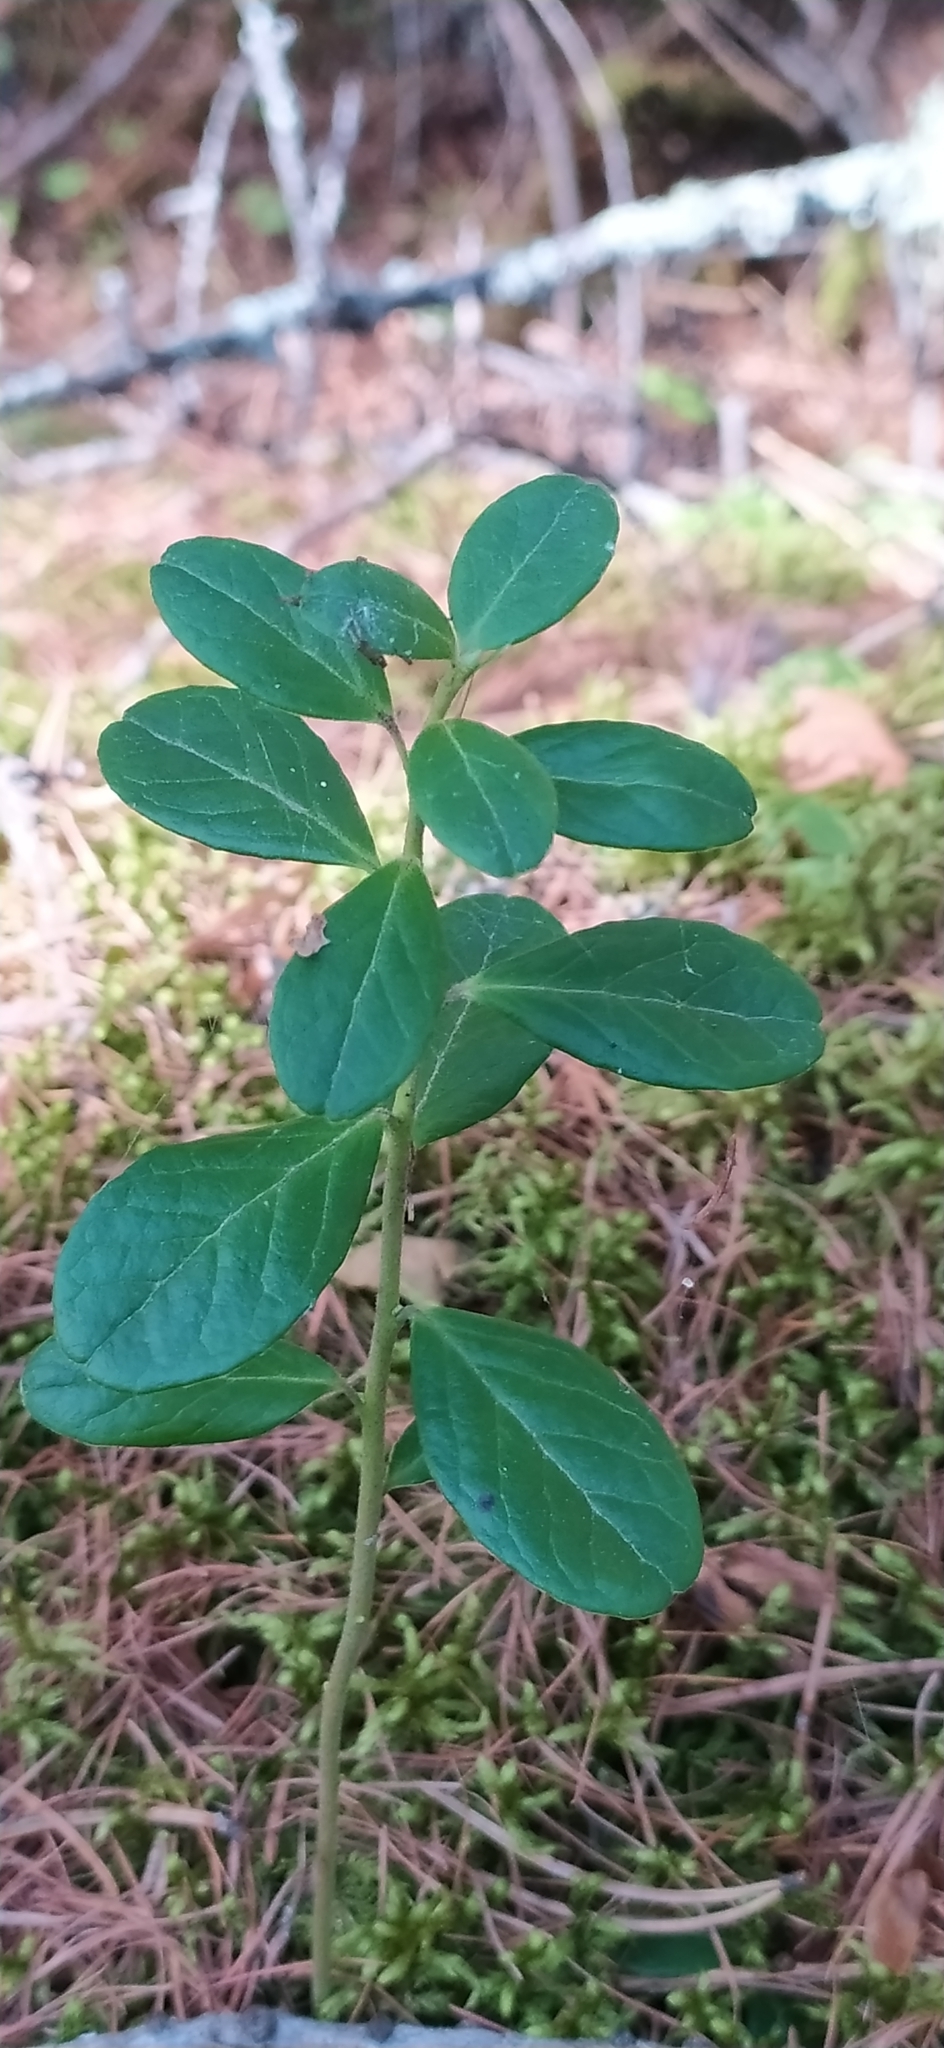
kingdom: Plantae
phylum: Tracheophyta
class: Magnoliopsida
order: Ericales
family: Ericaceae
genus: Vaccinium
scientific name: Vaccinium vitis-idaea
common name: Cowberry
